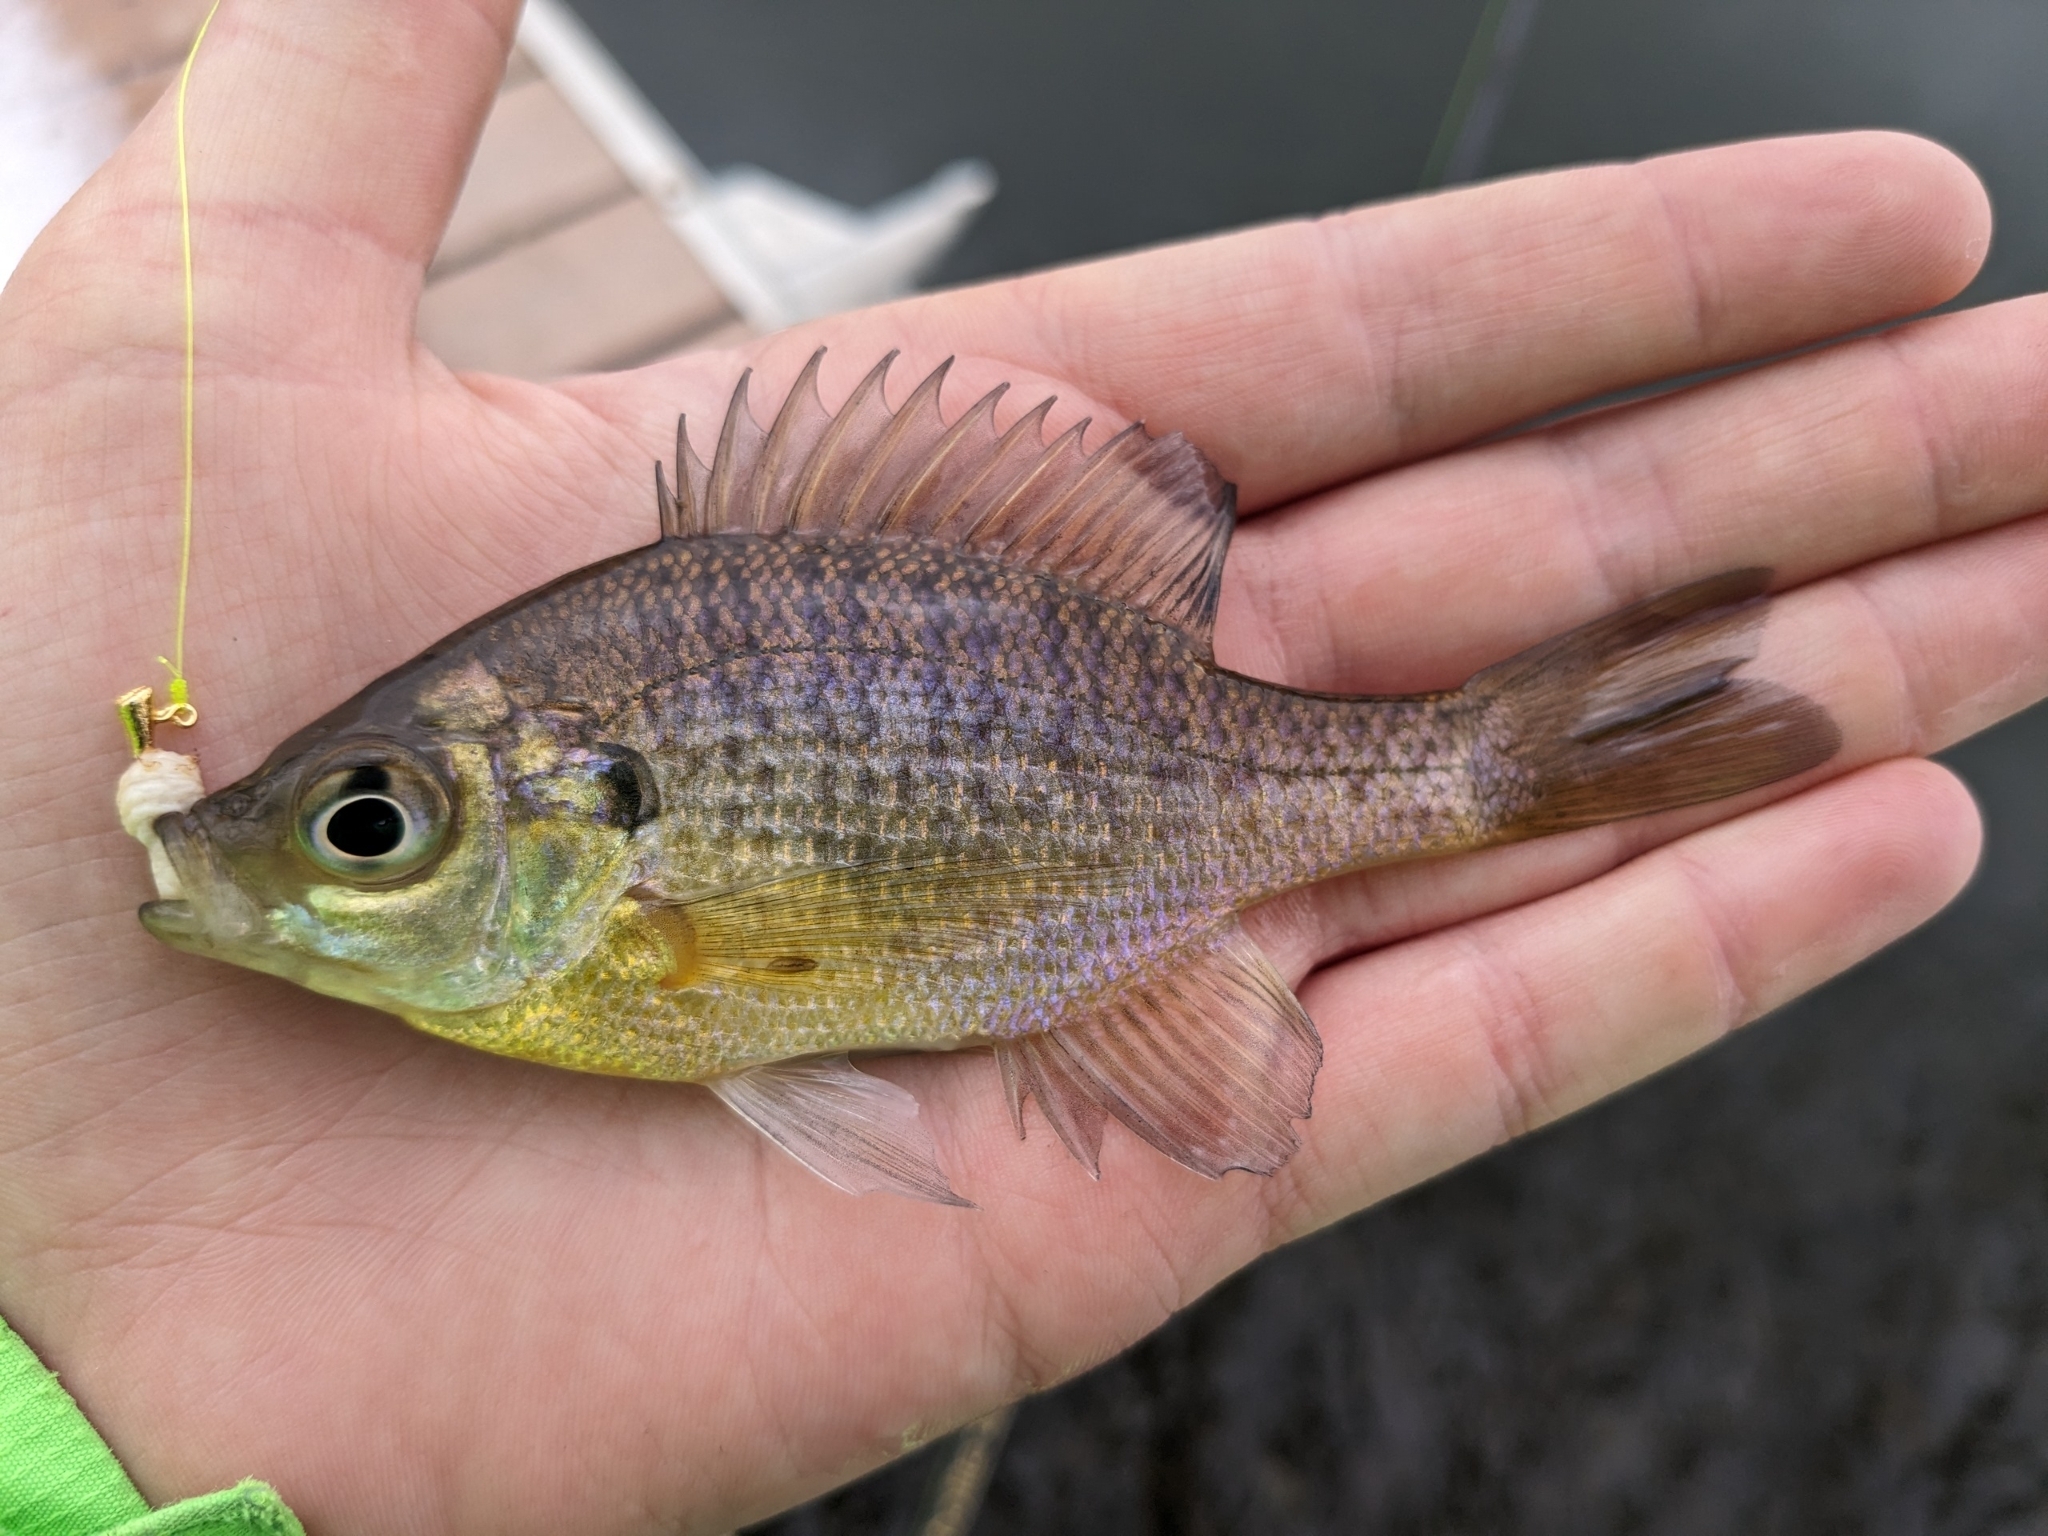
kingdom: Animalia
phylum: Chordata
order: Perciformes
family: Centrarchidae
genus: Lepomis
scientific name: Lepomis macrochirus
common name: Bluegill
